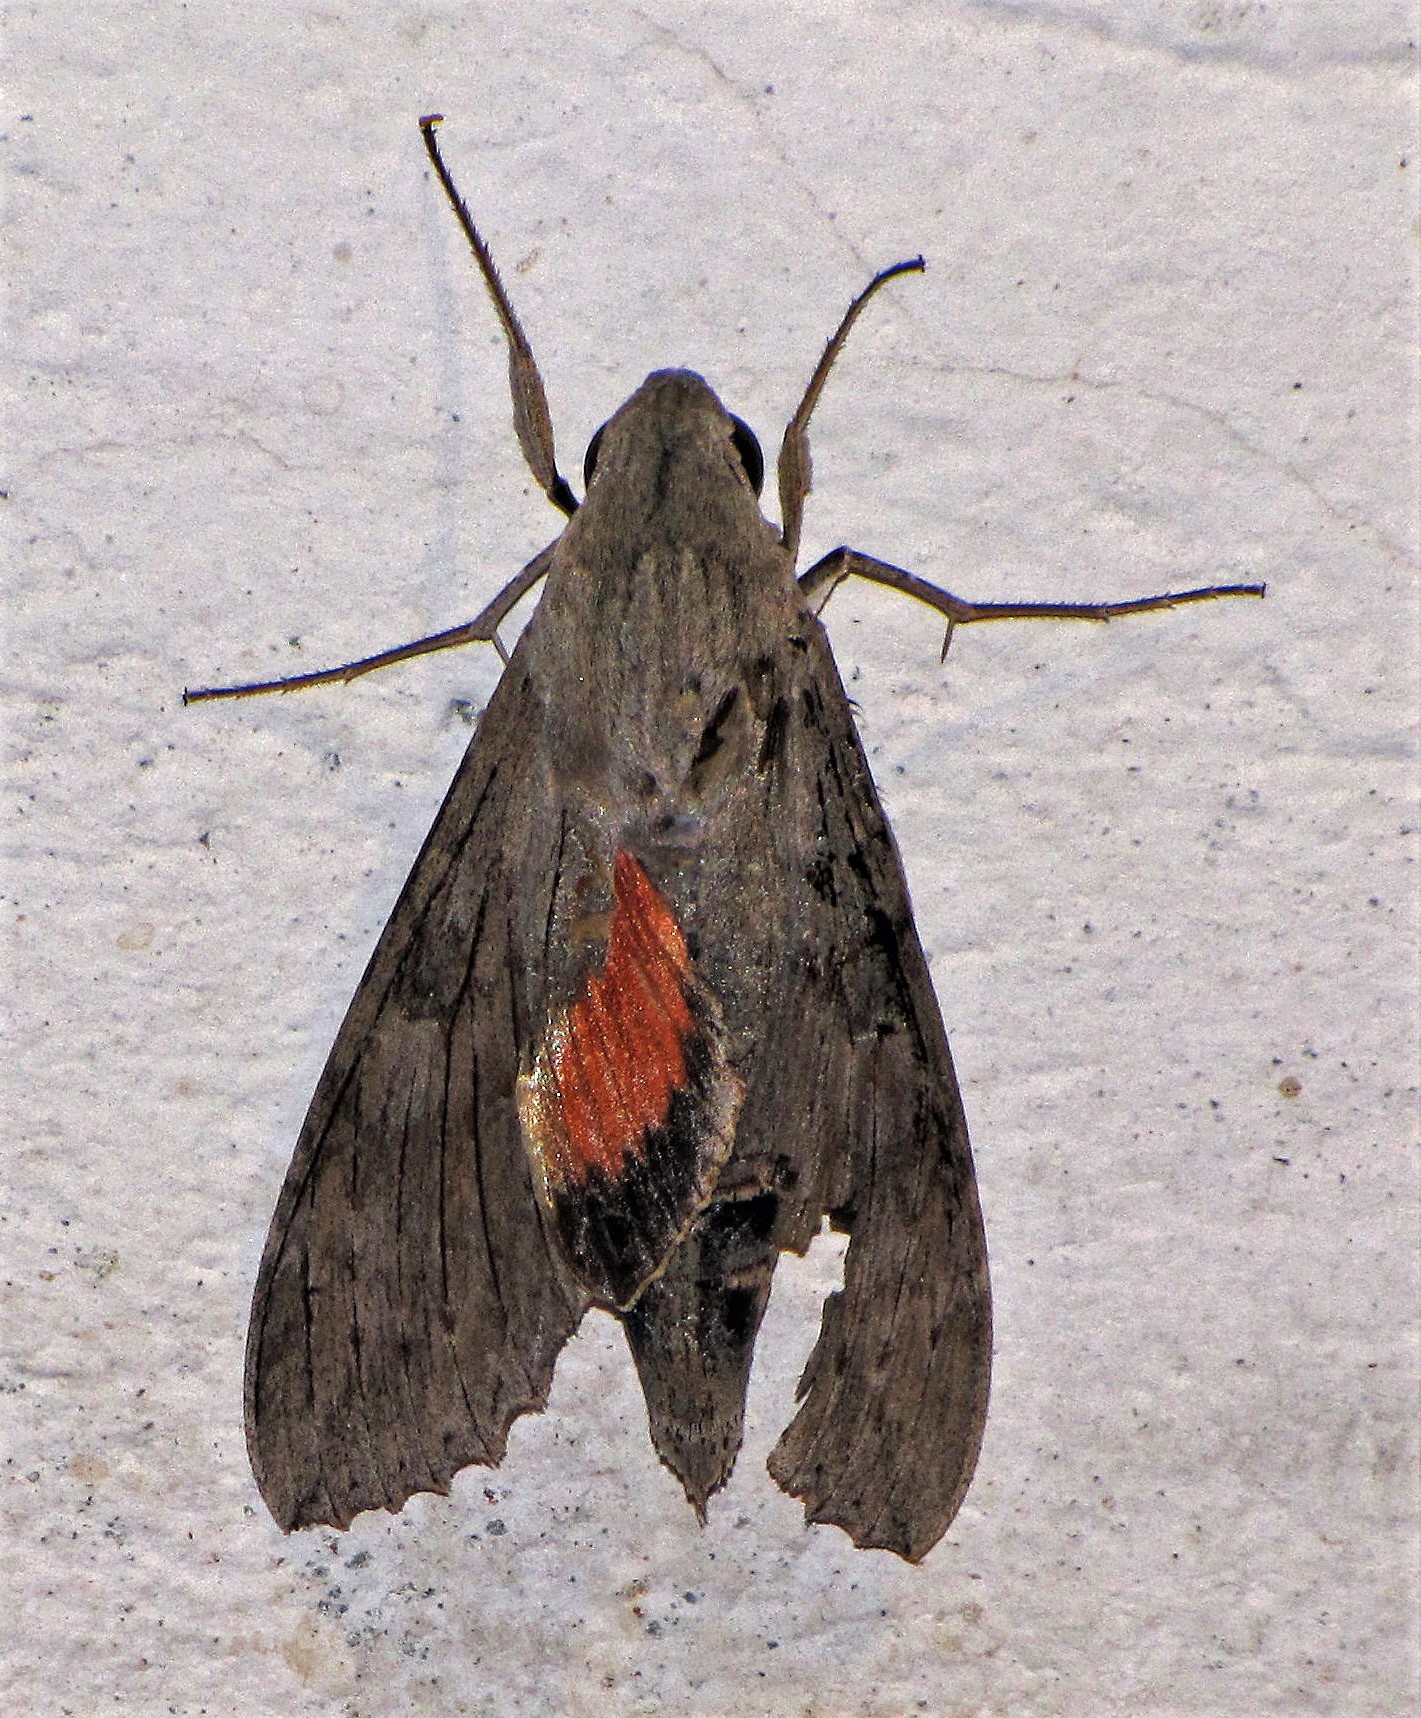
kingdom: Animalia
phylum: Arthropoda
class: Insecta
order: Lepidoptera
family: Sphingidae
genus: Erinnyis
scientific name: Erinnyis ello
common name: Ello sphinx
